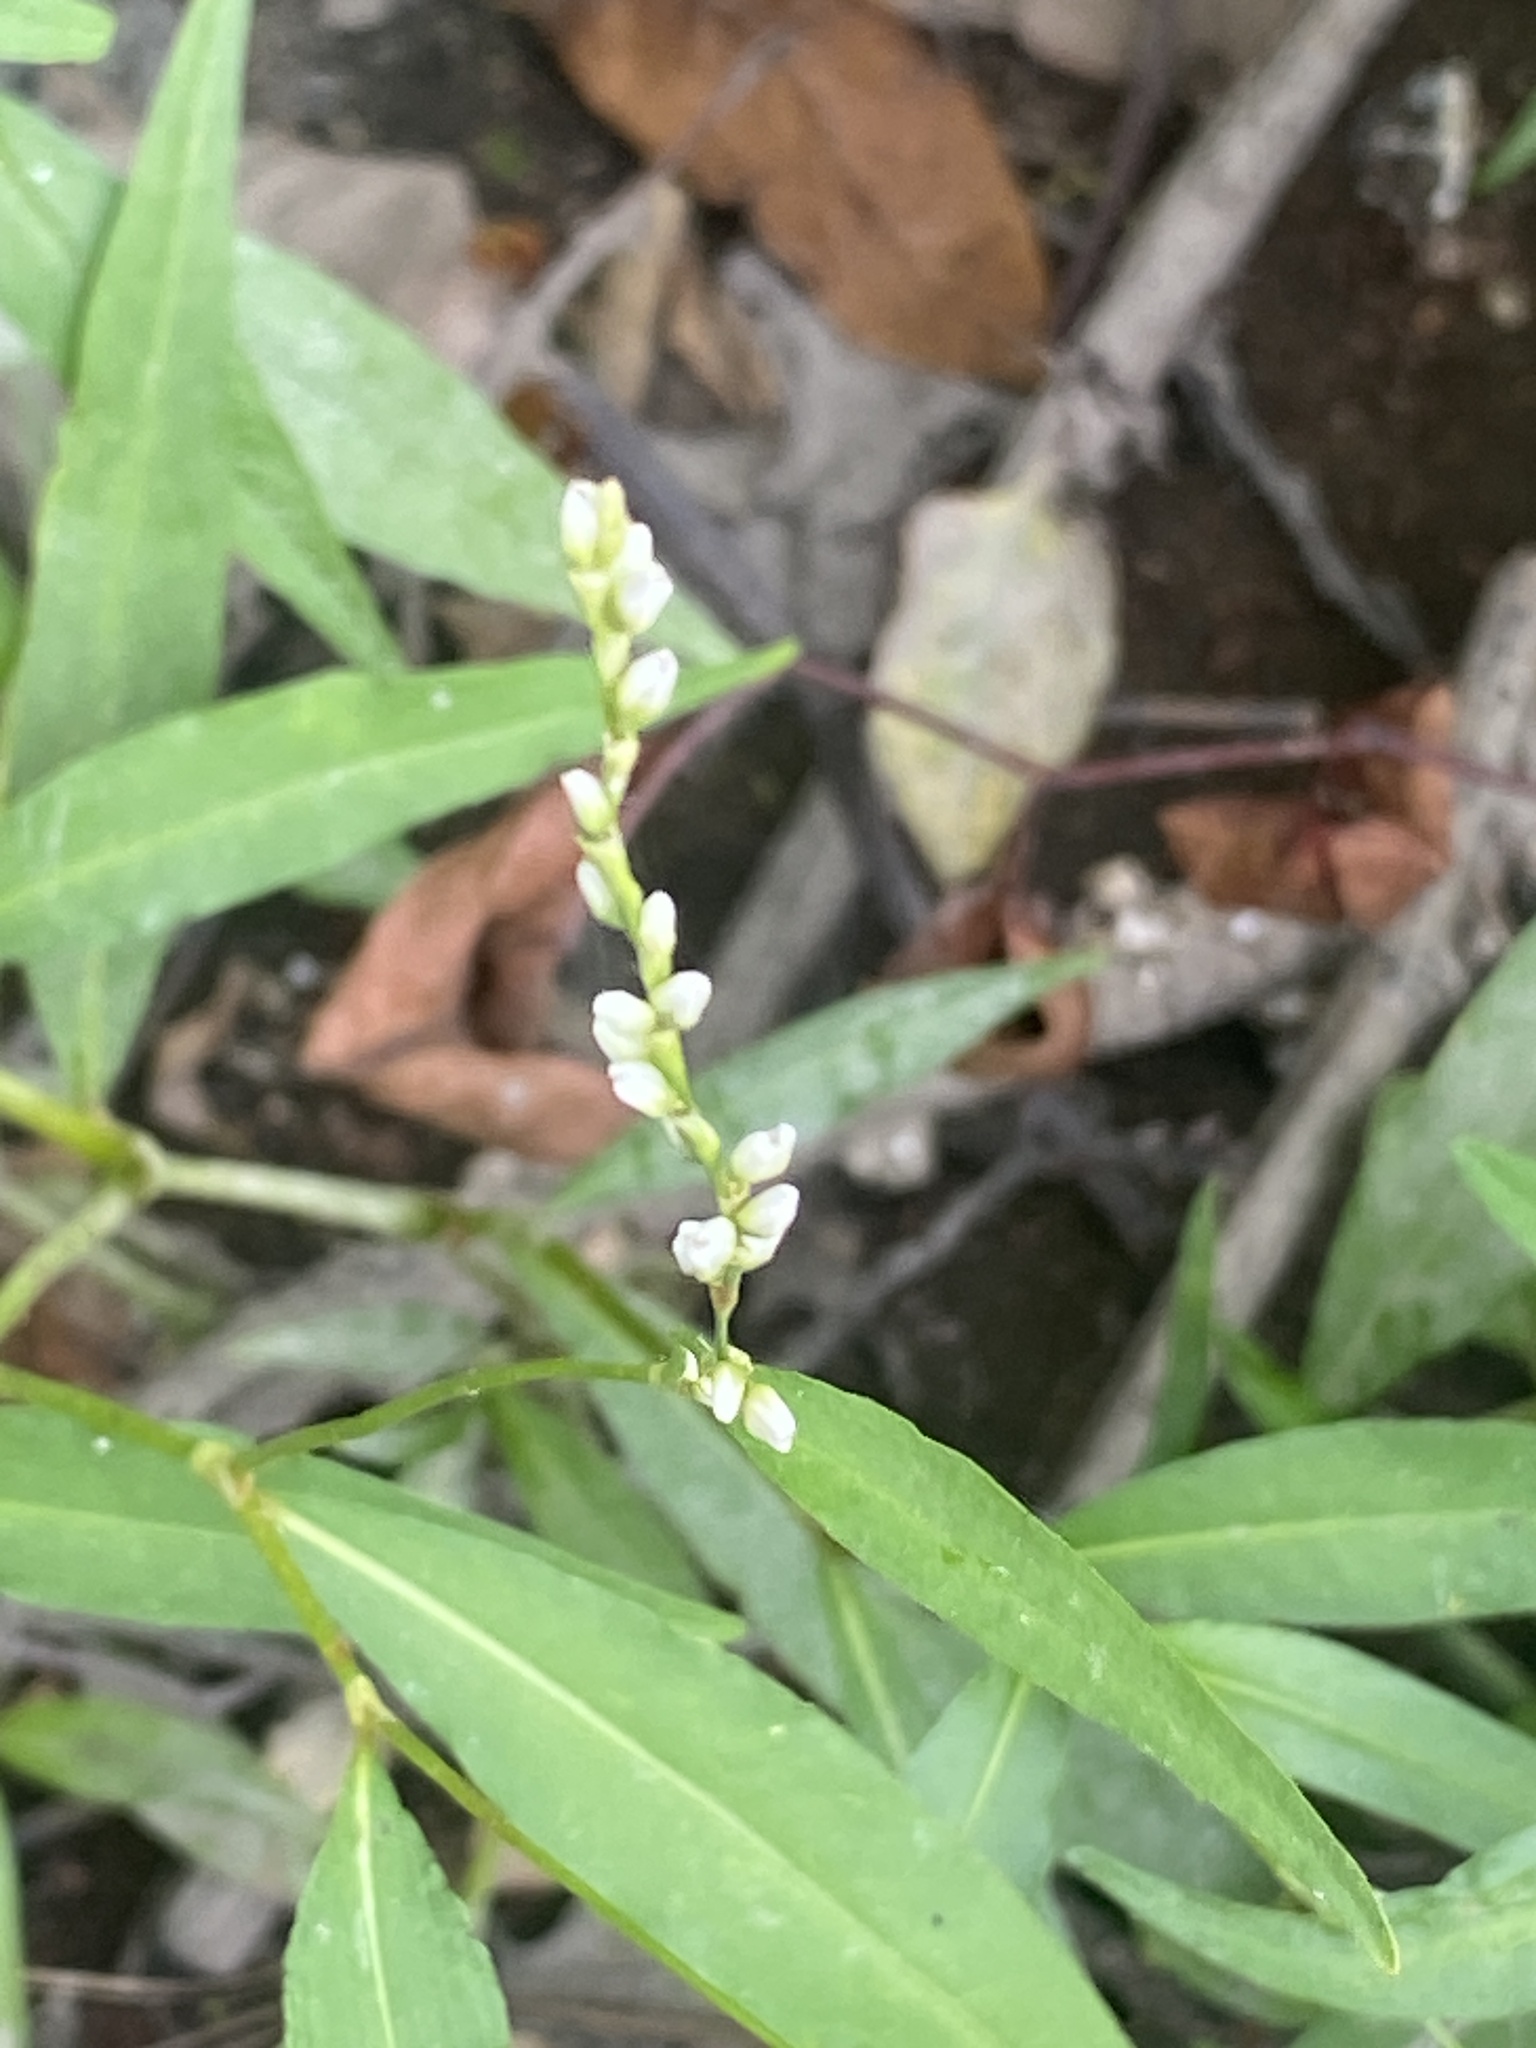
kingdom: Plantae
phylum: Tracheophyta
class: Magnoliopsida
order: Caryophyllales
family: Polygonaceae
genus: Persicaria
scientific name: Persicaria punctata
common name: Dotted smartweed
